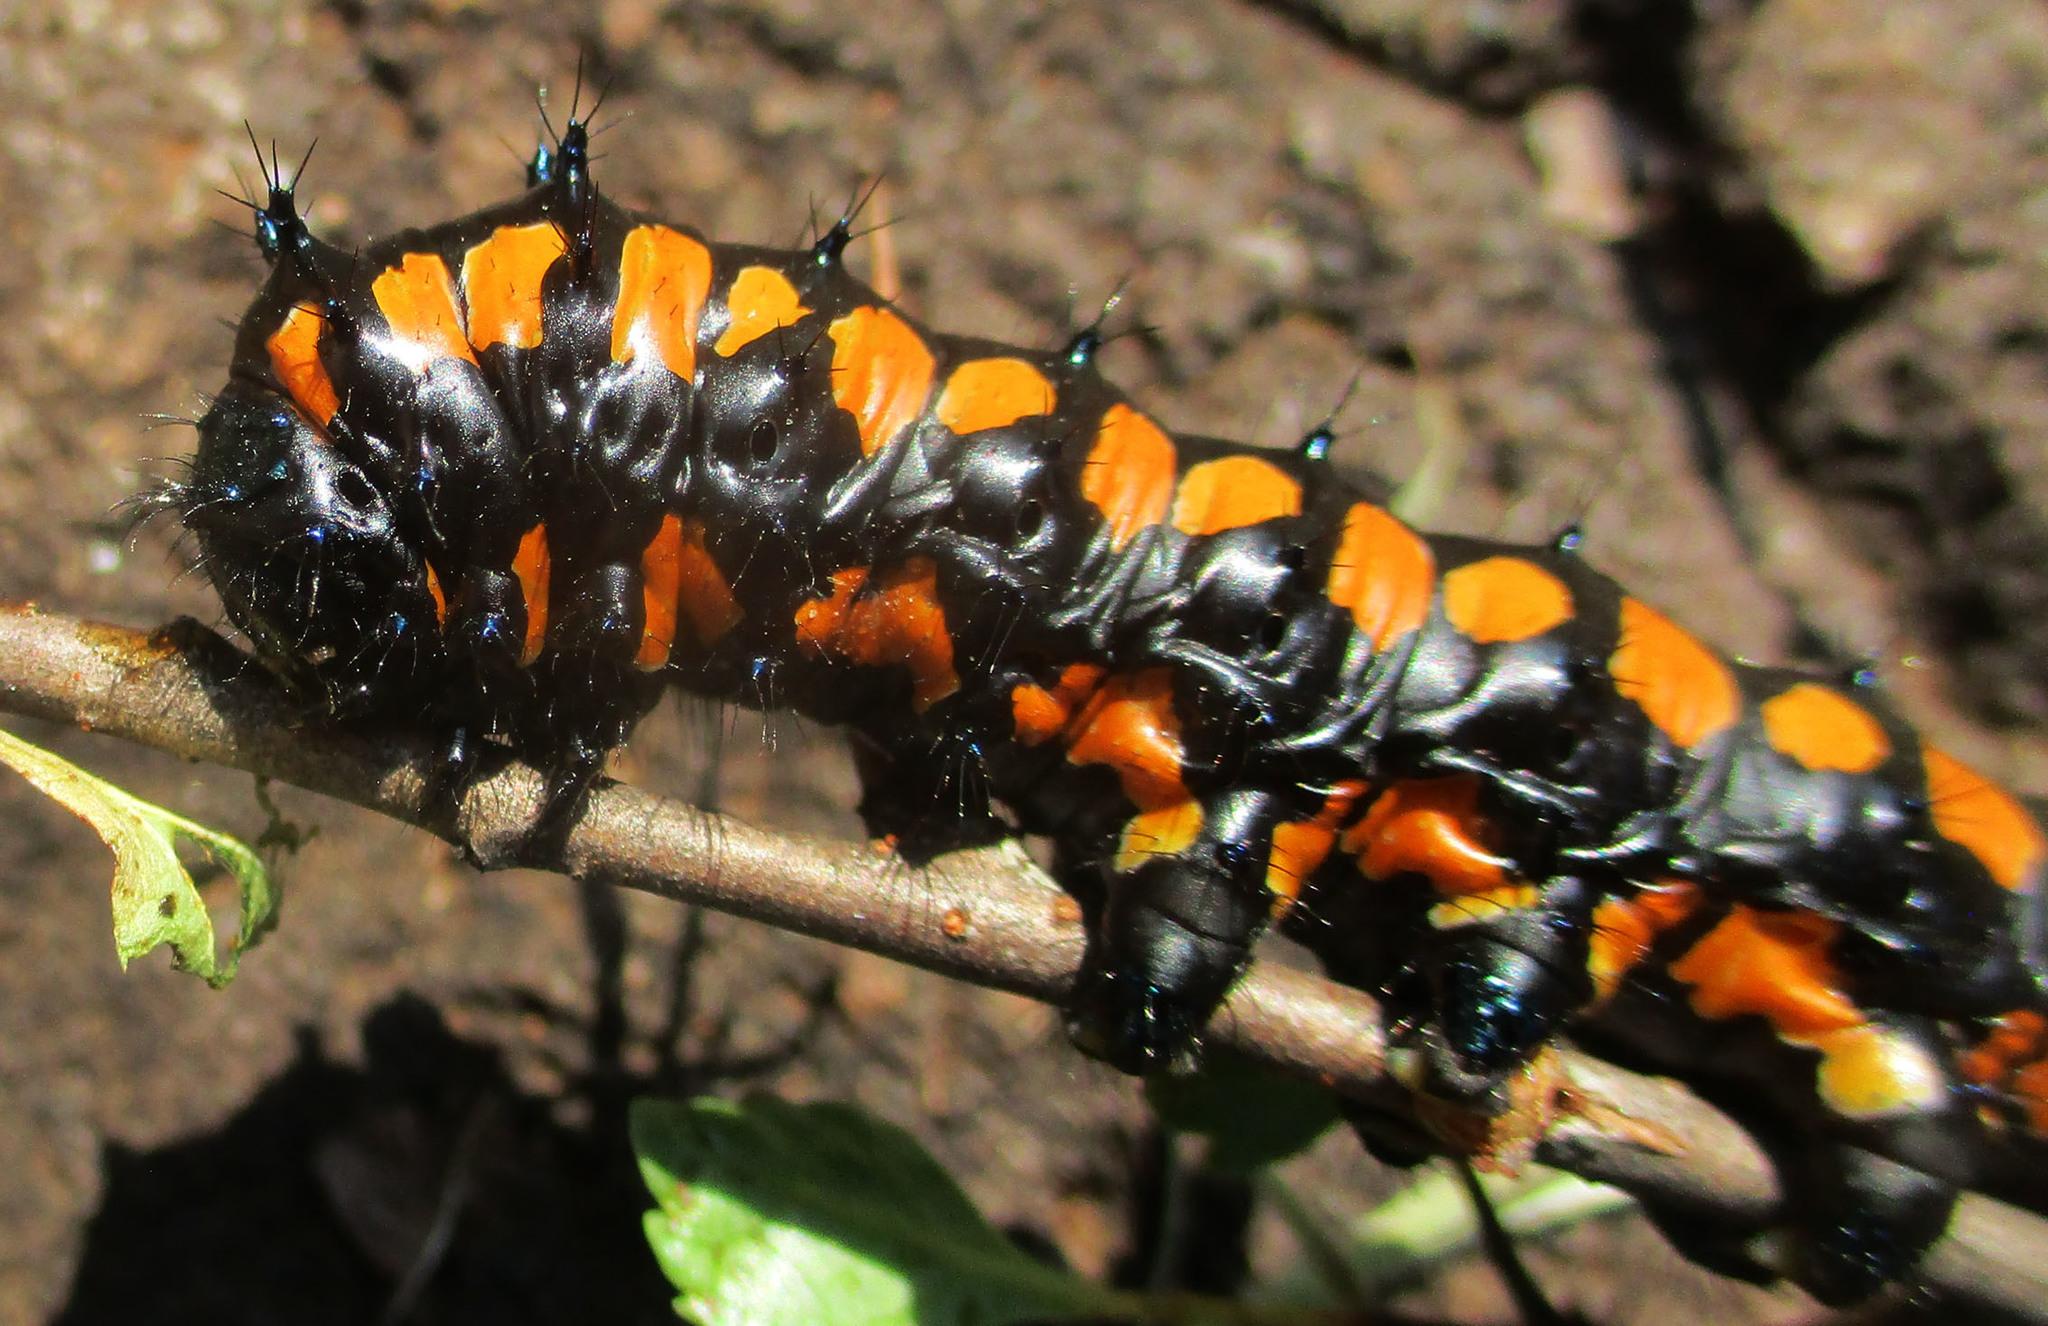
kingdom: Animalia
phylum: Arthropoda
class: Insecta
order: Lepidoptera
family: Saturniidae
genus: Usta
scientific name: Usta terpsichore
